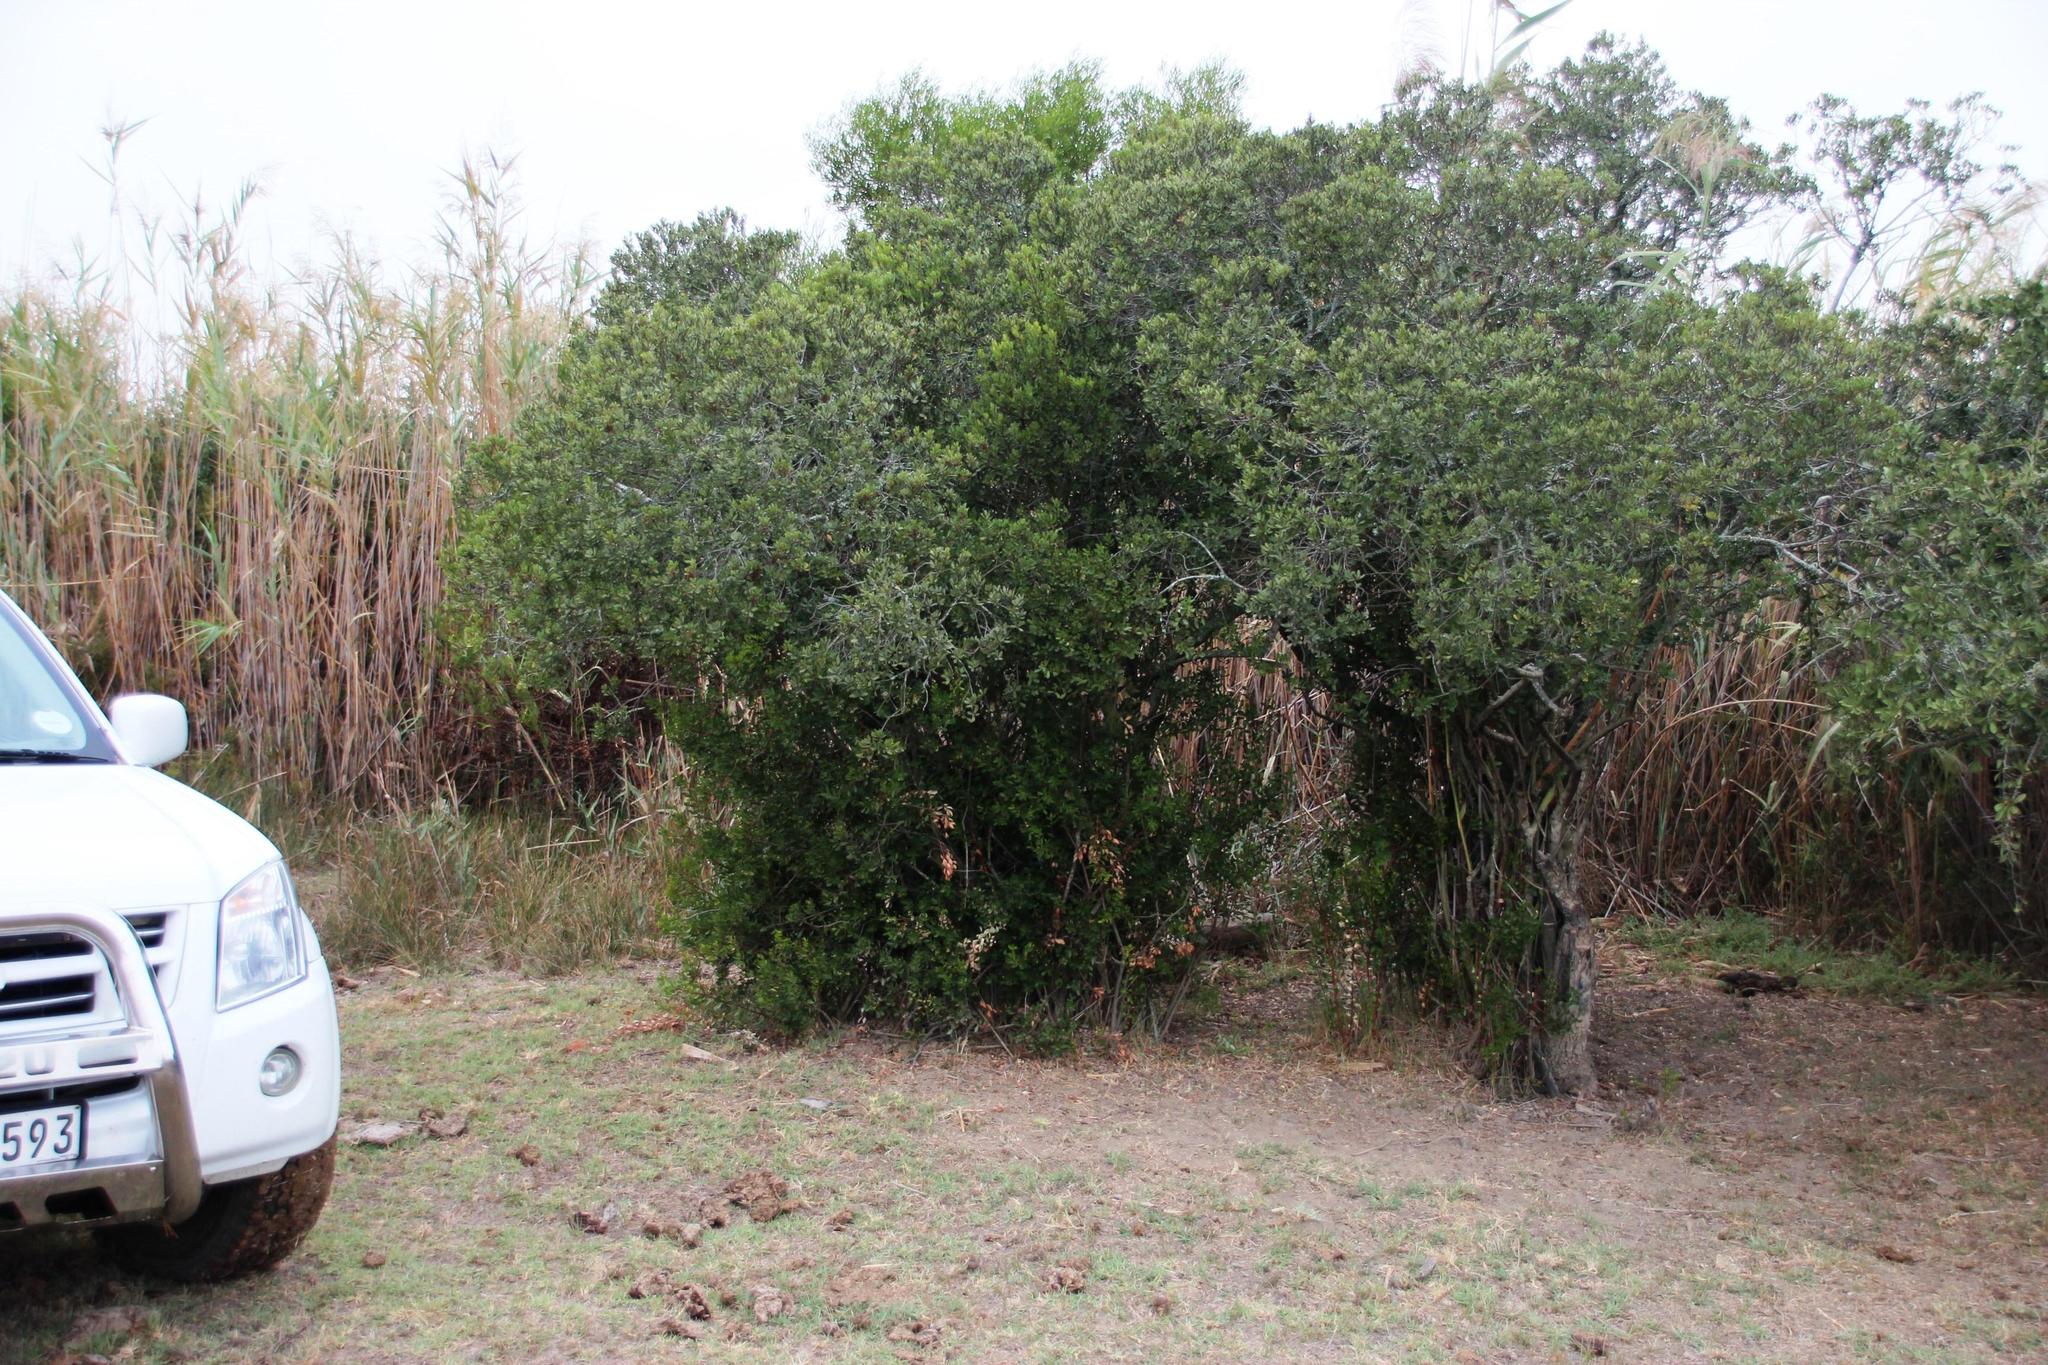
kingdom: Plantae
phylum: Tracheophyta
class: Magnoliopsida
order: Ericales
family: Ebenaceae
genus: Euclea
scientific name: Euclea racemosa
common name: Dune guarri
